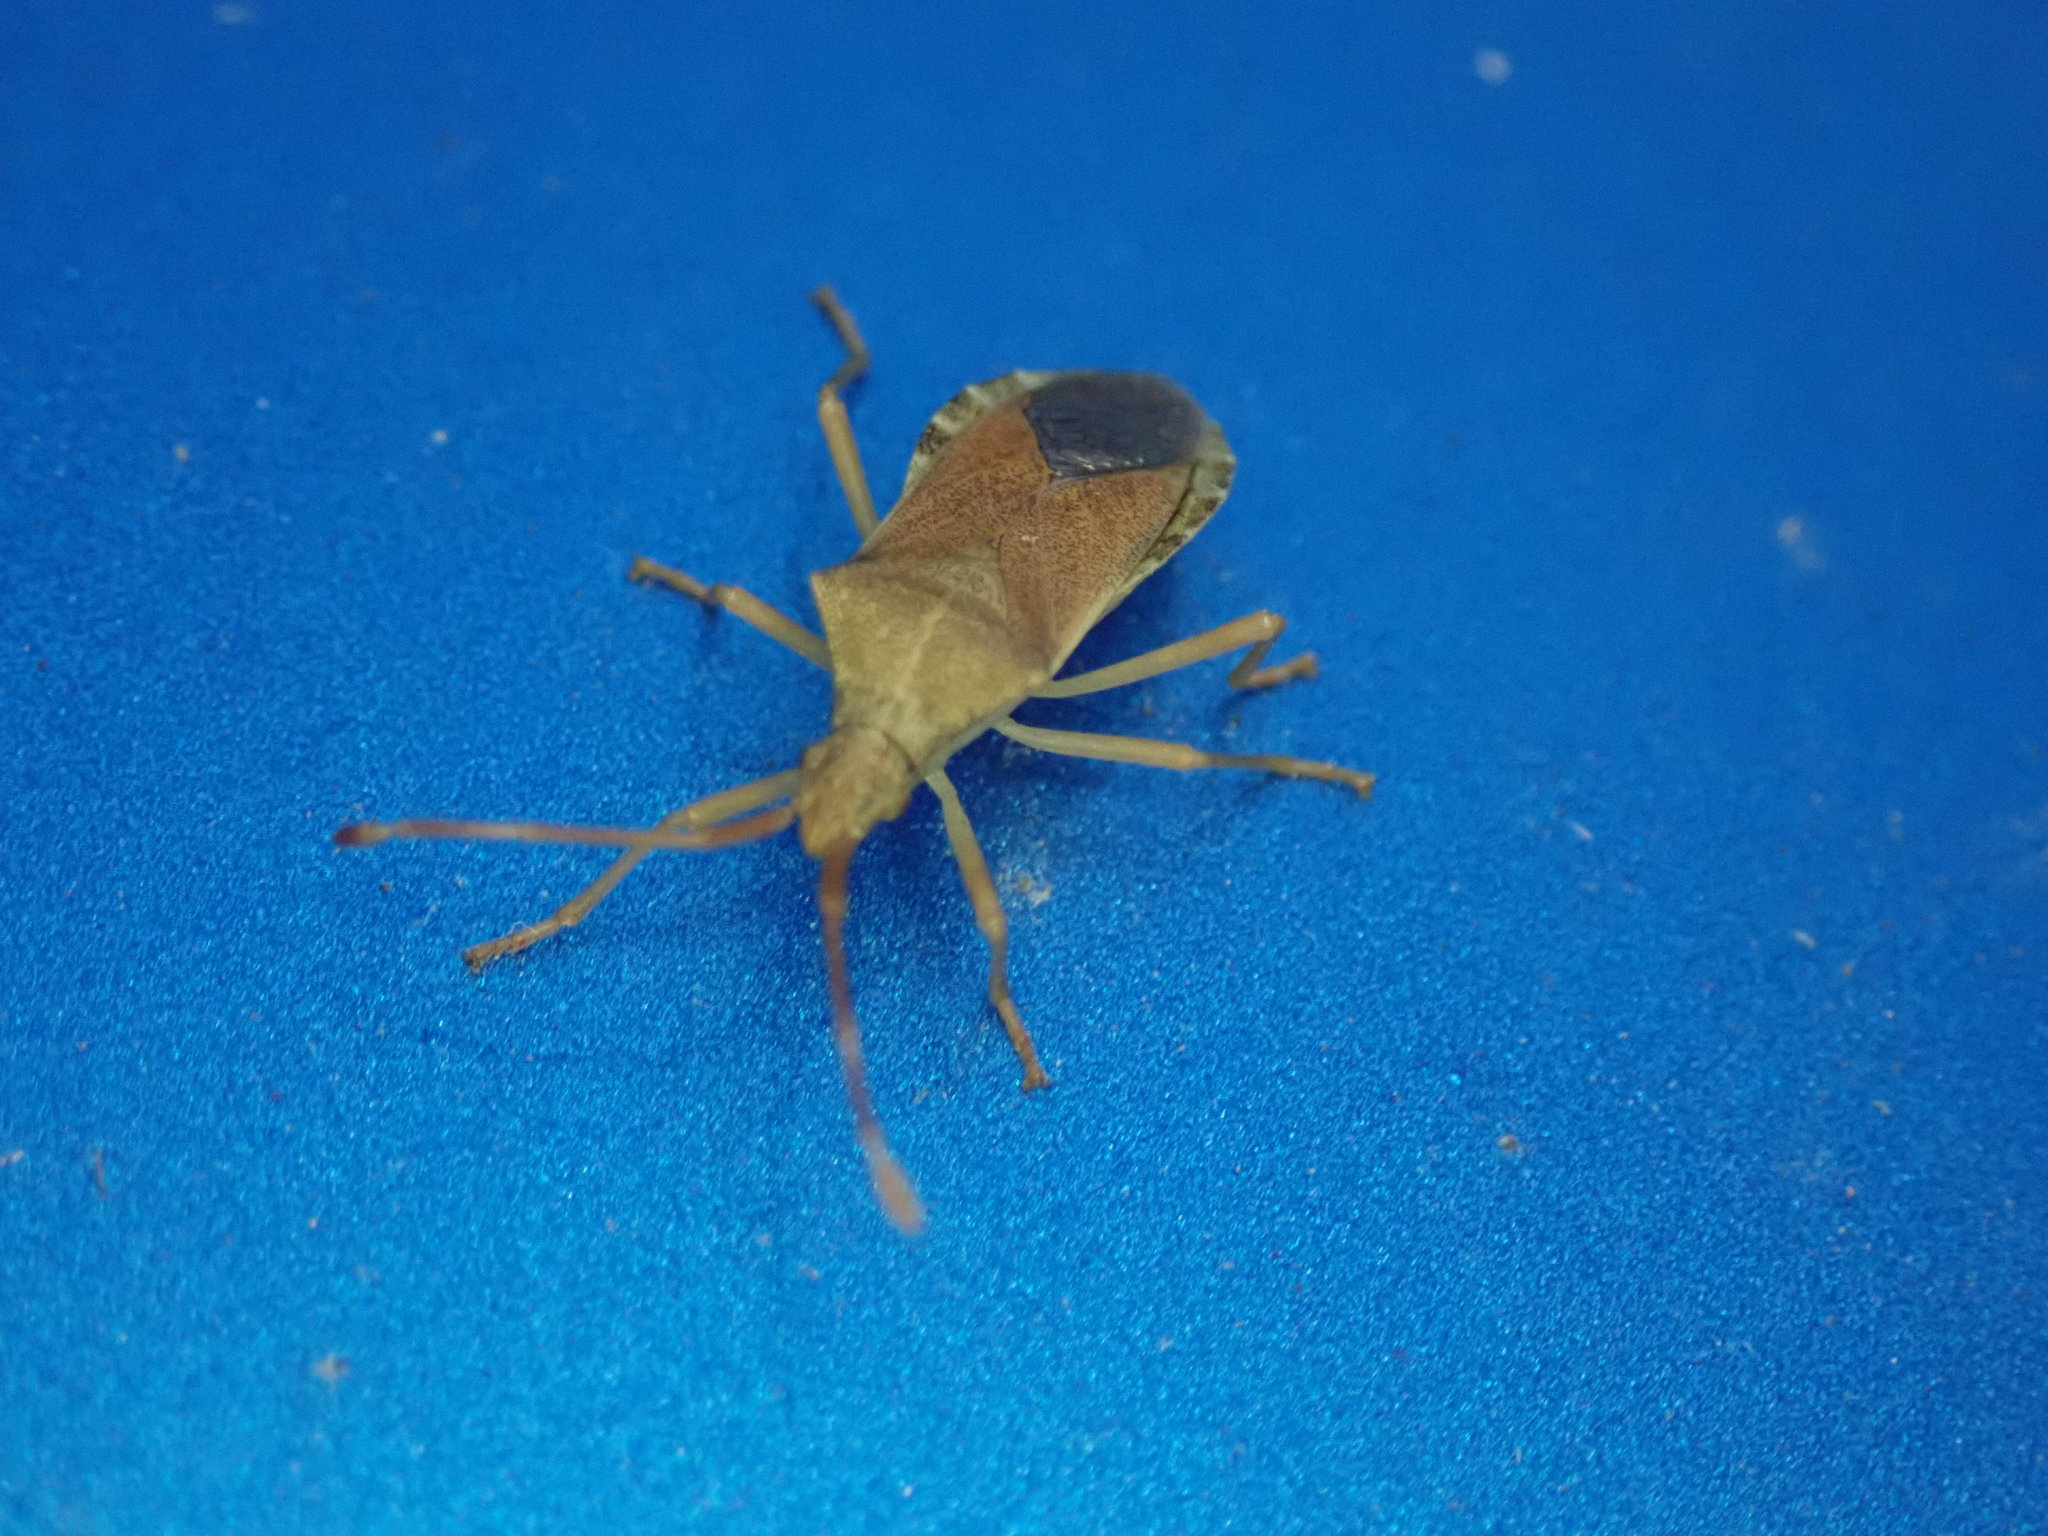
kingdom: Animalia
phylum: Arthropoda
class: Insecta
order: Hemiptera
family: Coreidae
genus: Gonocerus
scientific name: Gonocerus acuteangulatus
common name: Box bug
